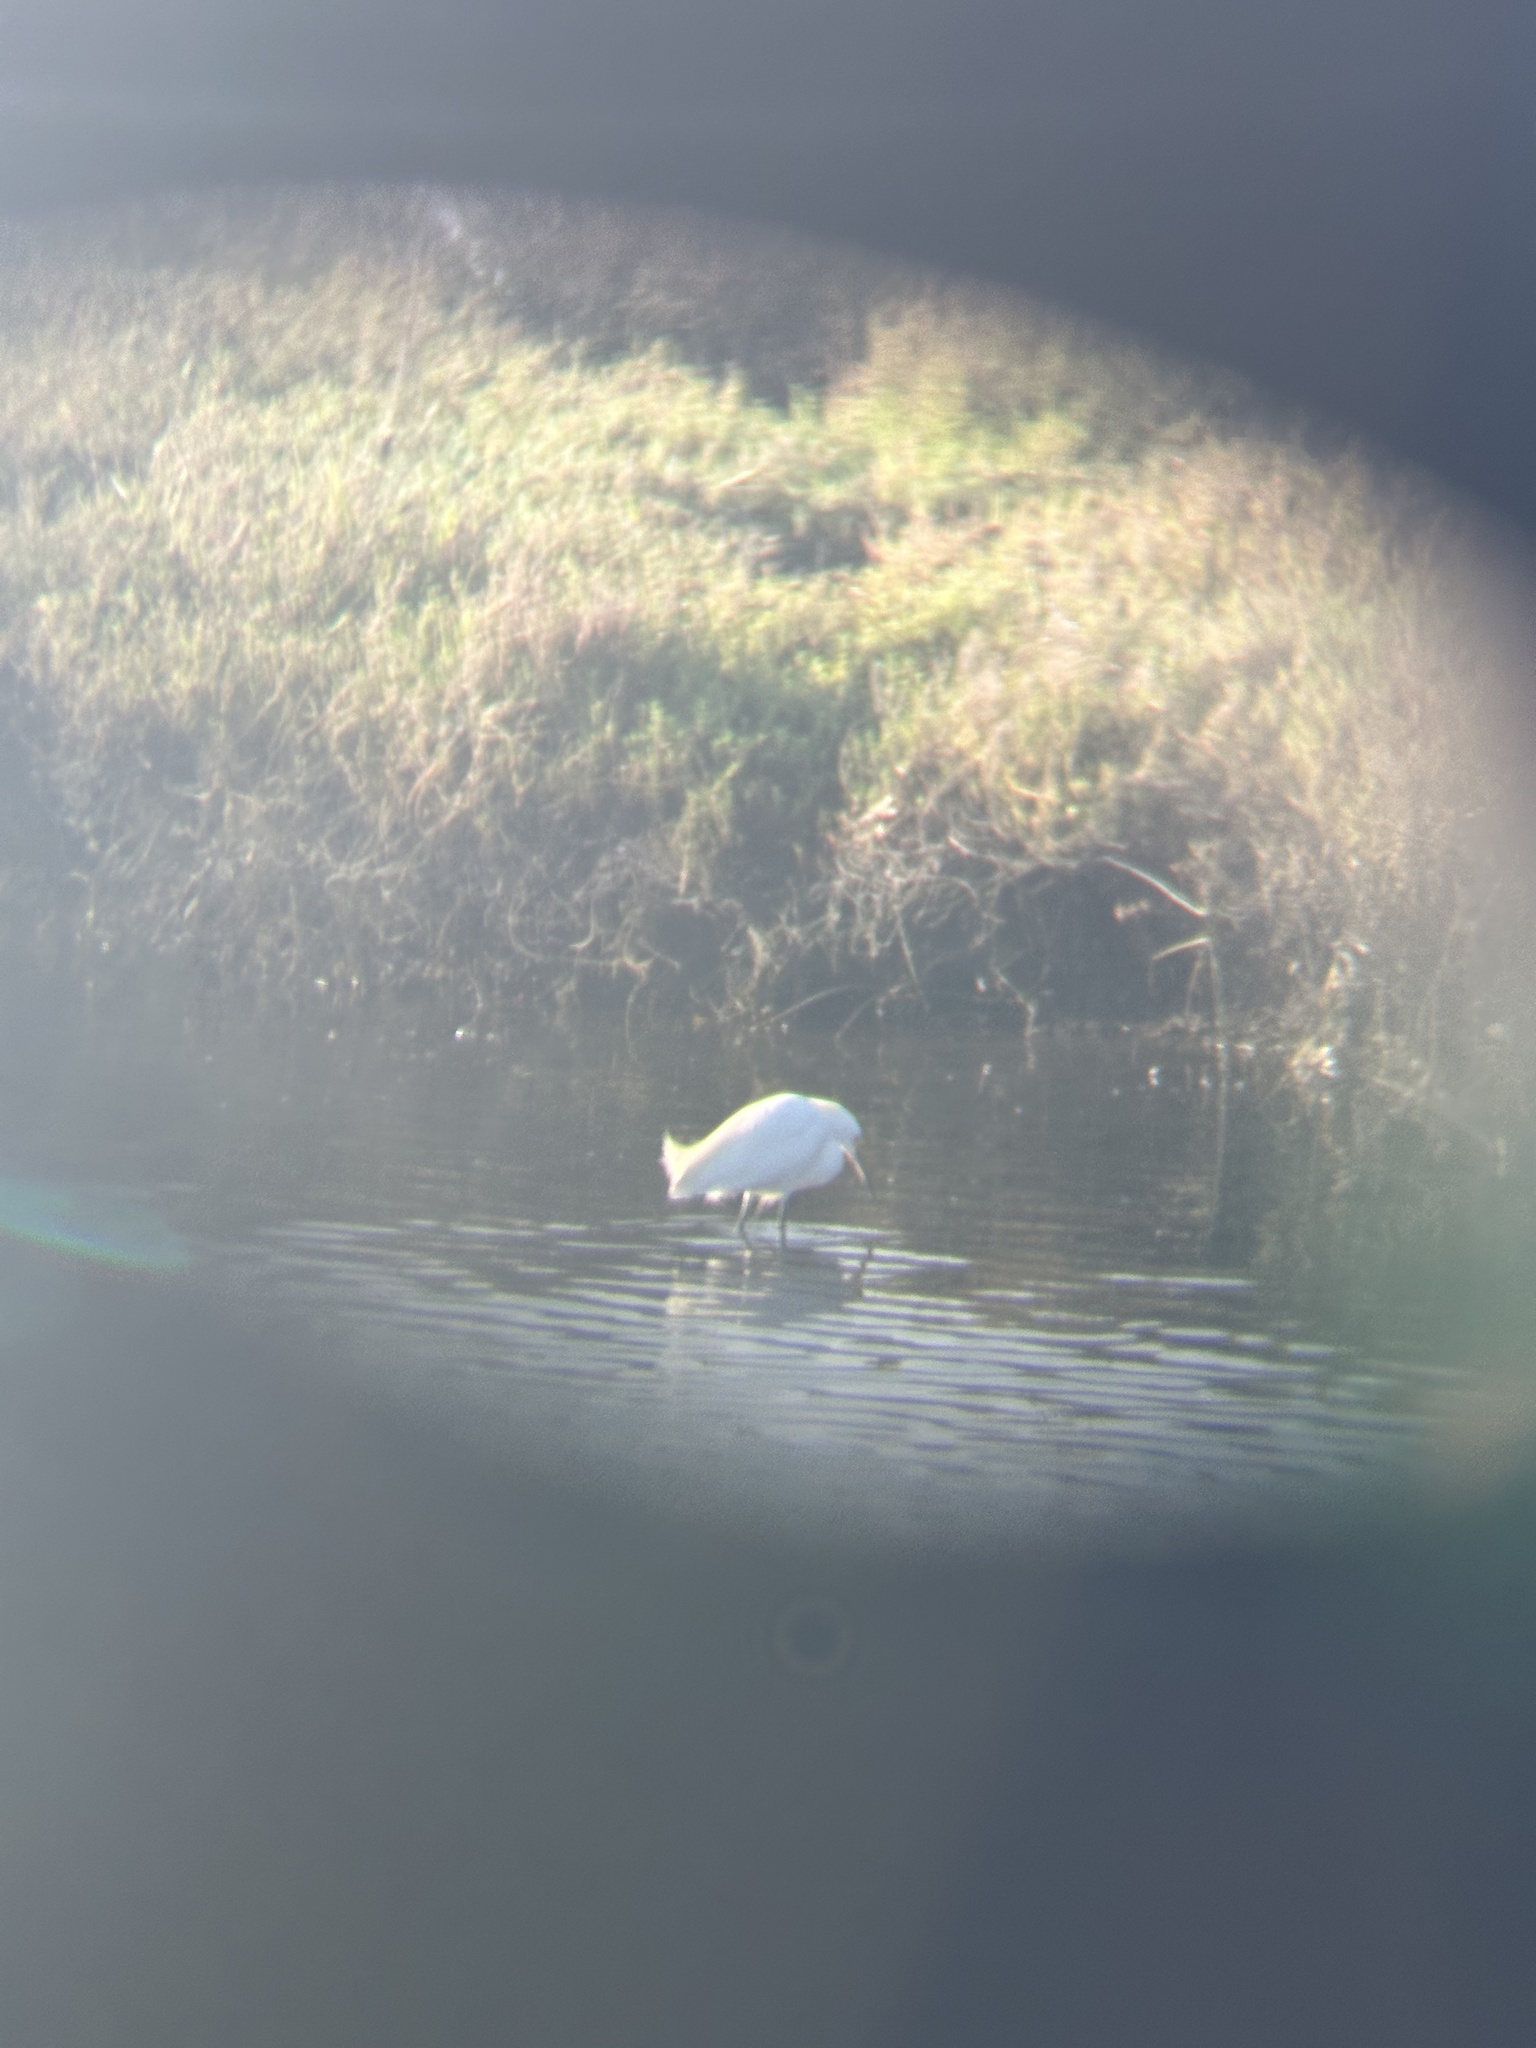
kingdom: Animalia
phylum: Chordata
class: Aves
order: Pelecaniformes
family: Ardeidae
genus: Egretta
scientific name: Egretta thula
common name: Snowy egret
